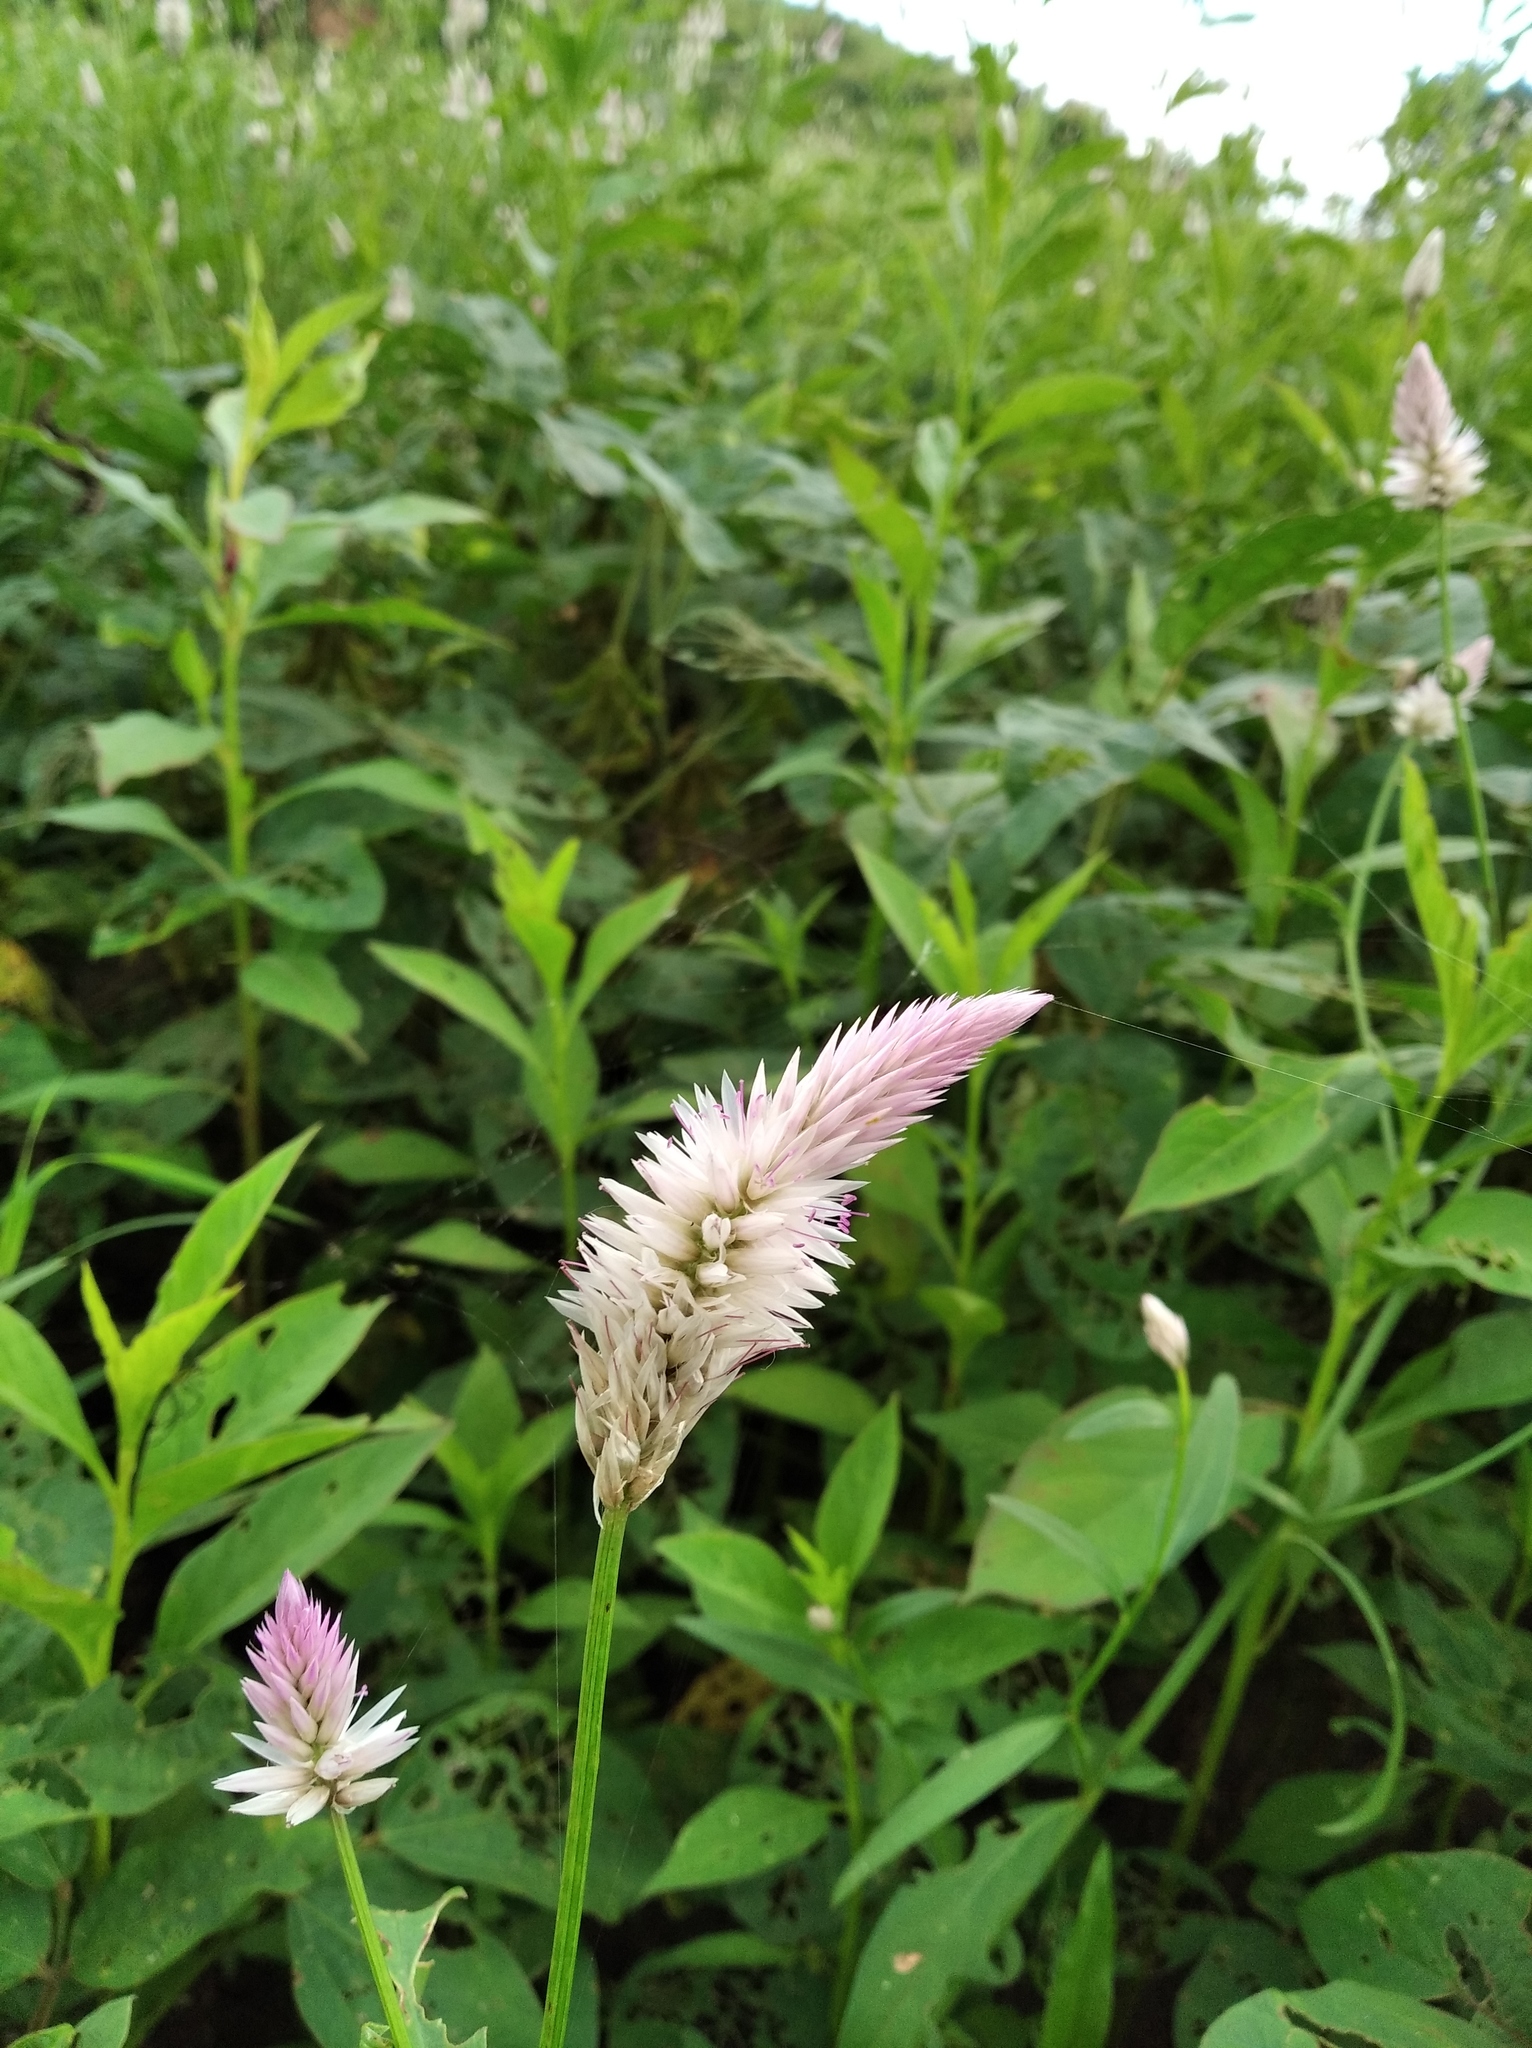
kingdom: Plantae
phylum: Tracheophyta
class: Magnoliopsida
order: Caryophyllales
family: Amaranthaceae
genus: Celosia
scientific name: Celosia argentea
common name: Feather cockscomb
